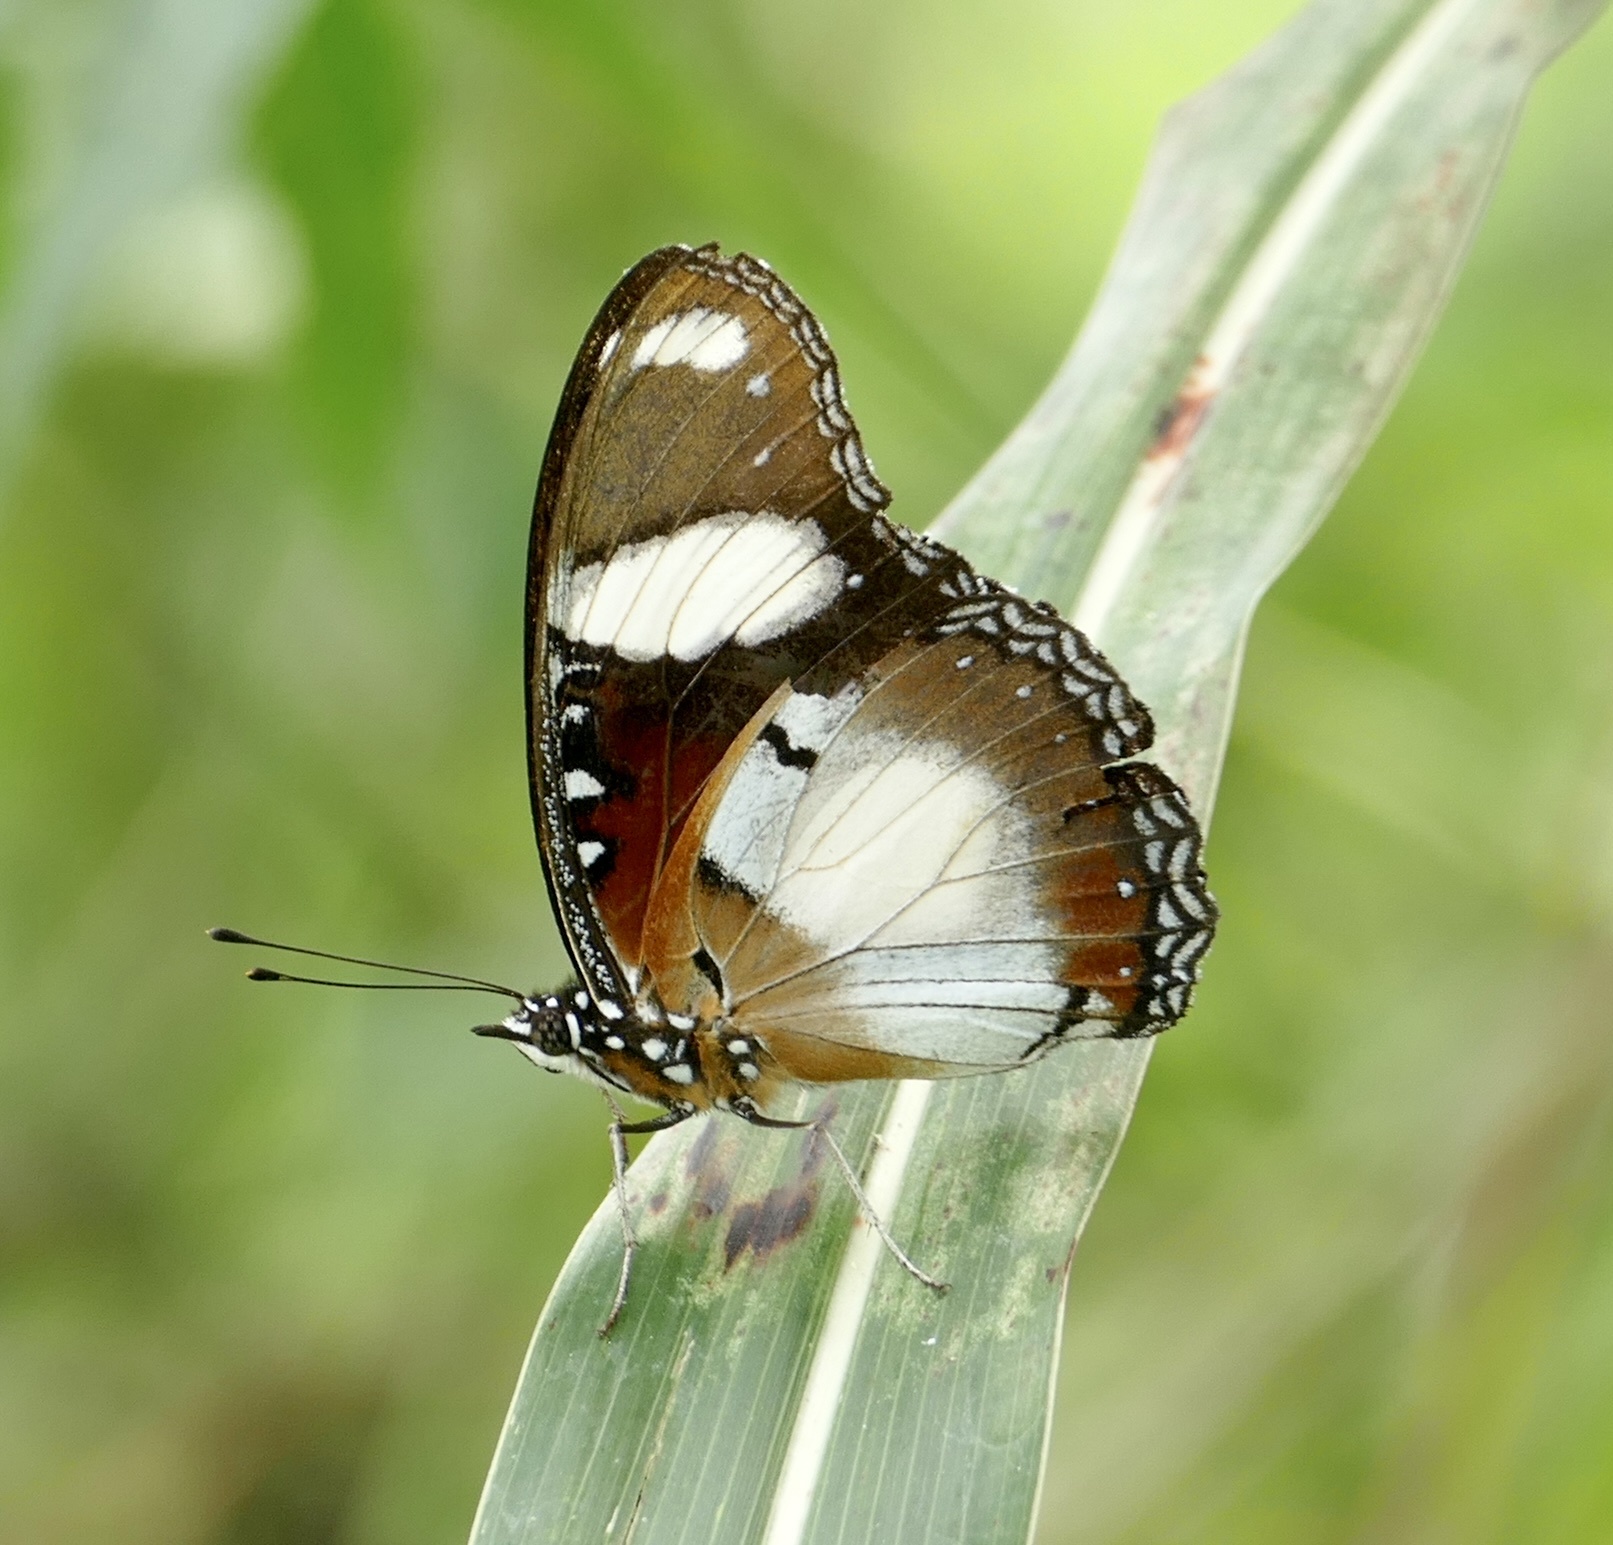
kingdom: Animalia
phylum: Arthropoda
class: Insecta
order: Lepidoptera
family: Nymphalidae
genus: Hypolimnas
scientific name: Hypolimnas misippus
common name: False plain tiger
